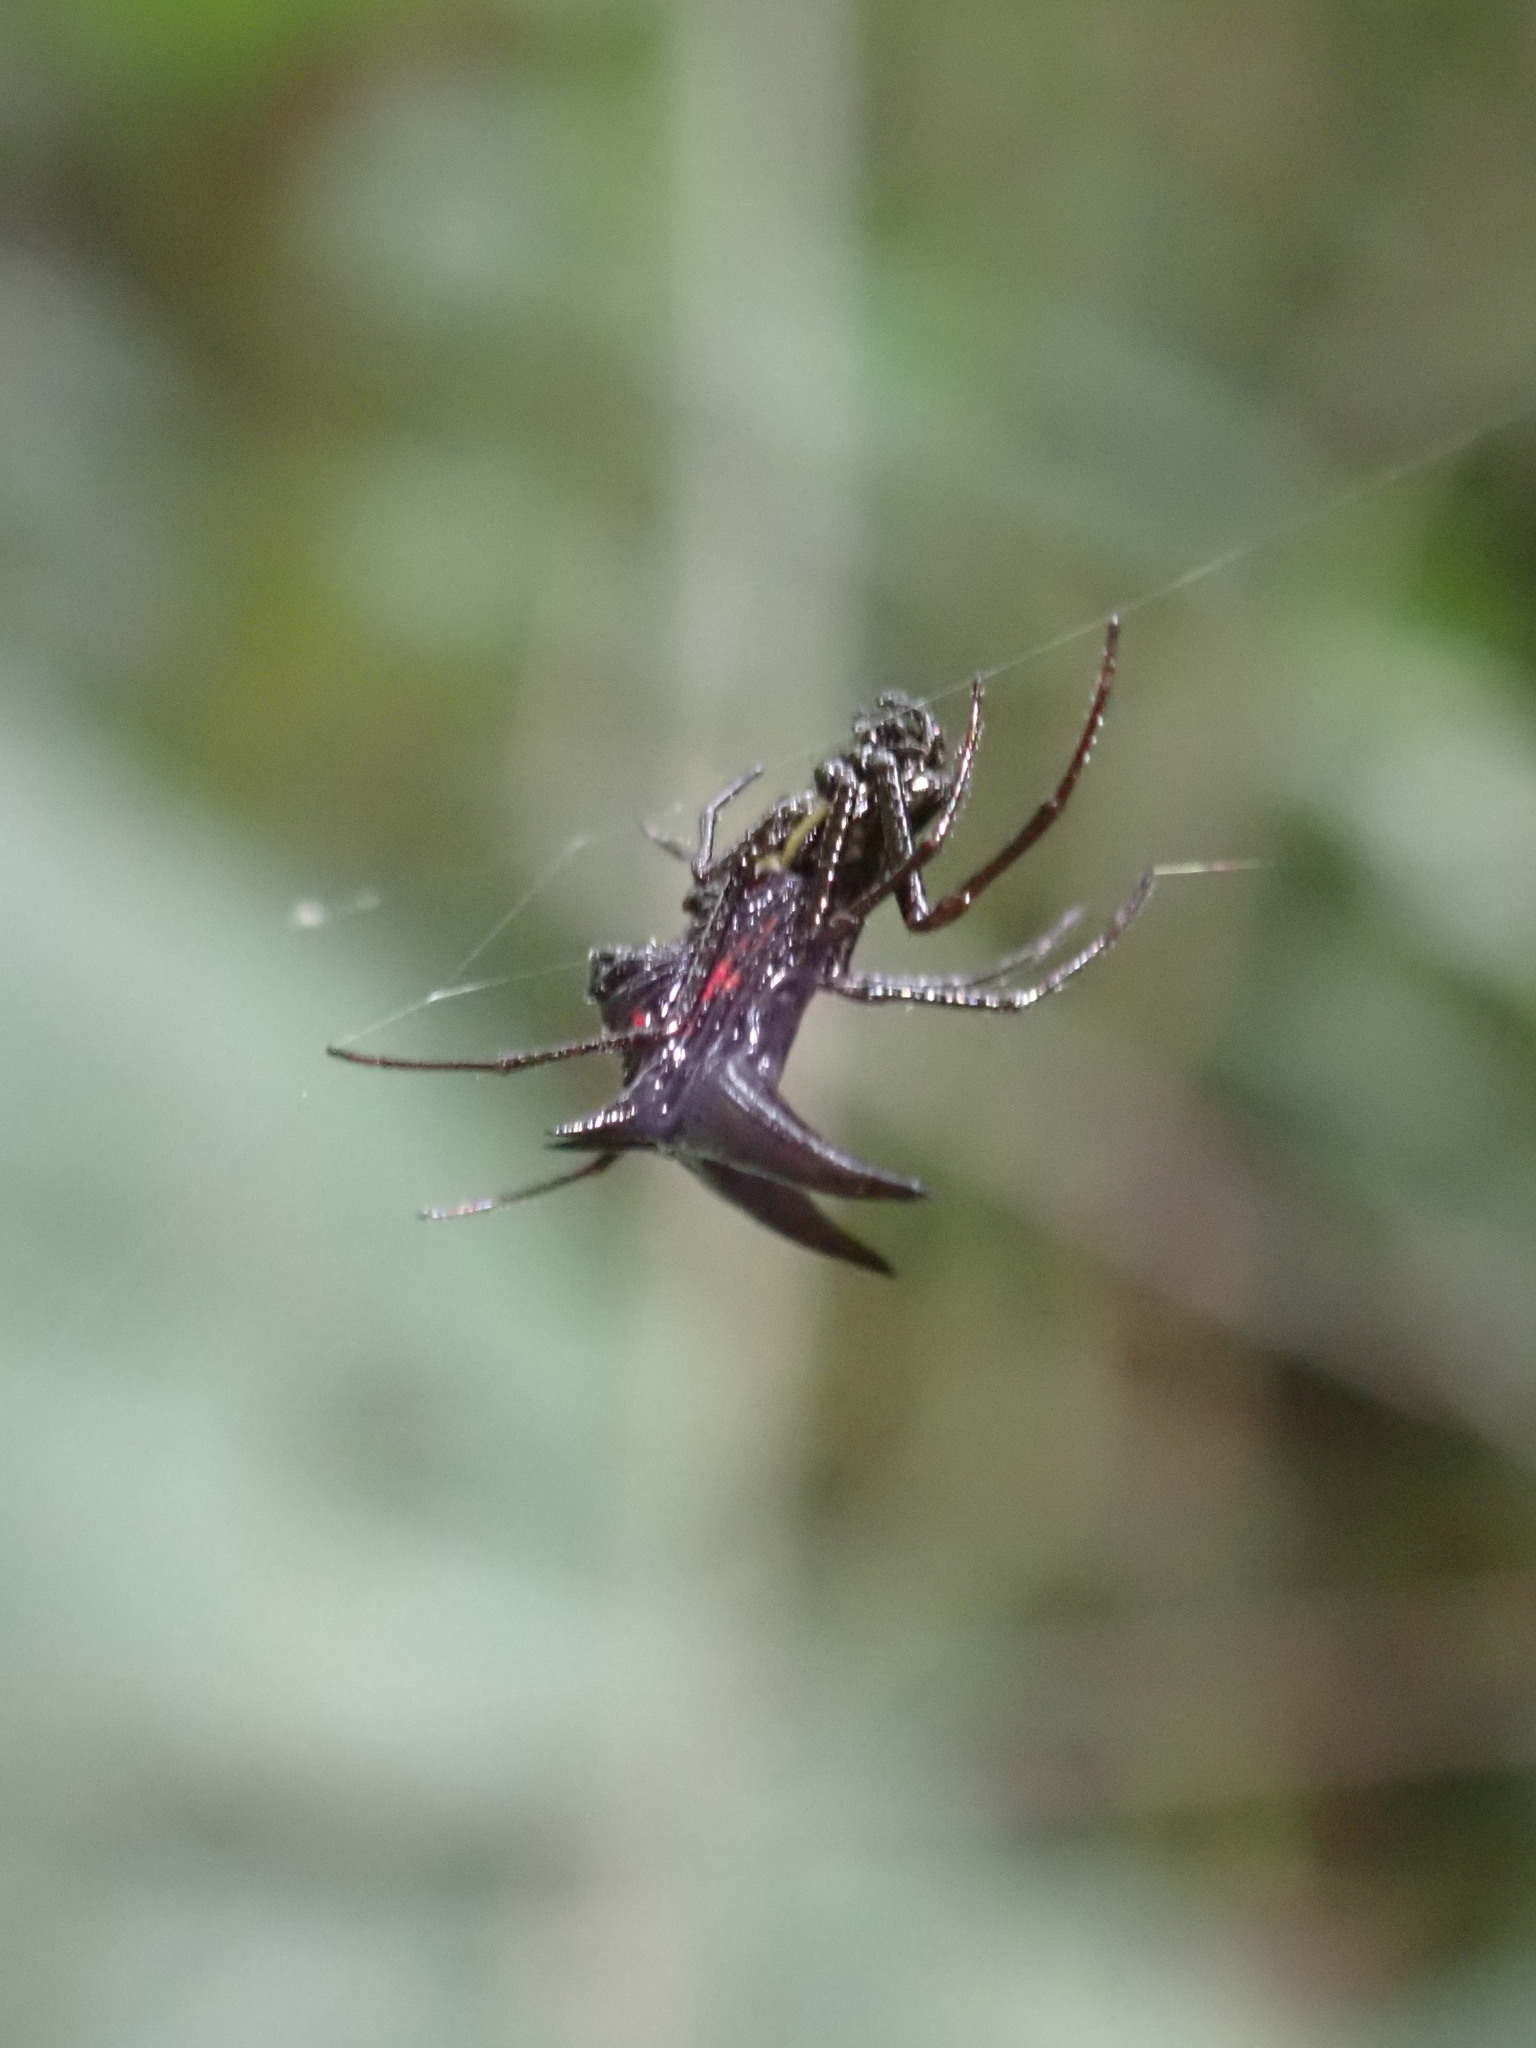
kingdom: Animalia
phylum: Arthropoda
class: Arachnida
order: Araneae
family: Araneidae
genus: Micrathena
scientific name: Micrathena pilaton
